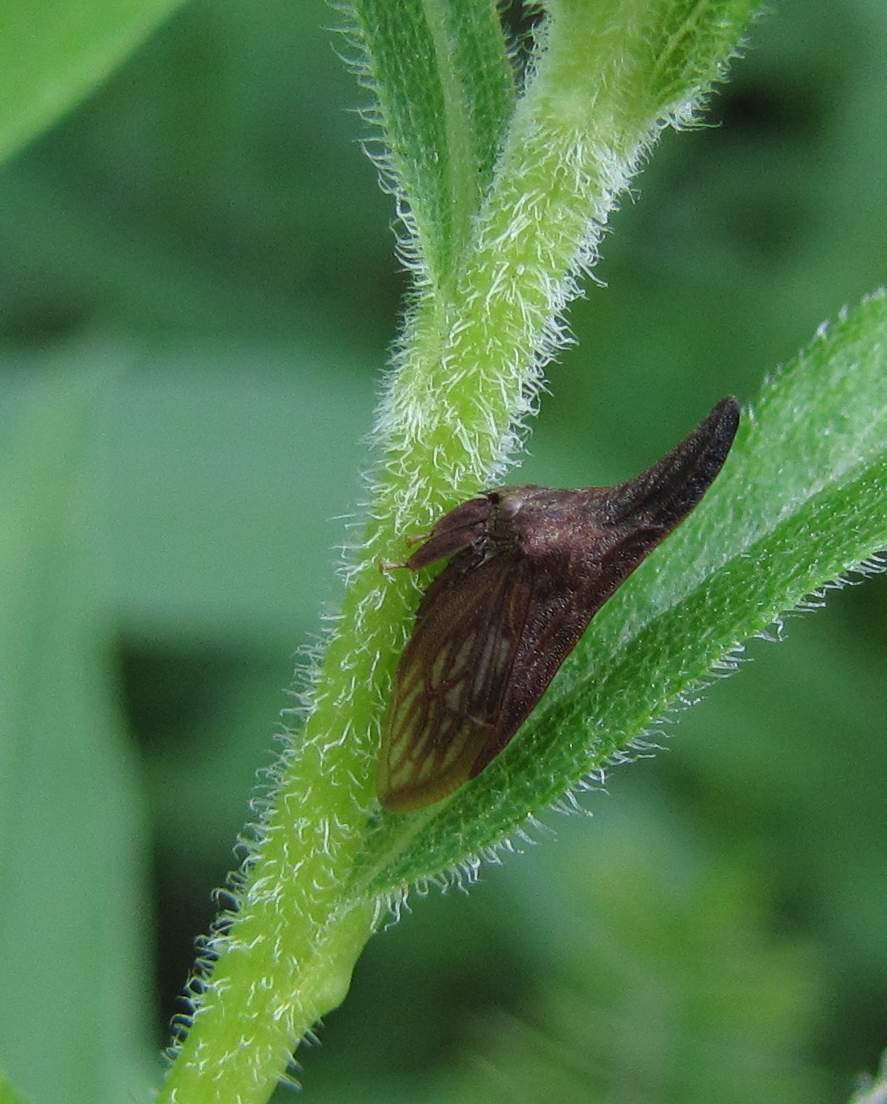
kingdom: Animalia
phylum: Arthropoda
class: Insecta
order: Hemiptera
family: Membracidae
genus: Enchenopa
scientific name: Enchenopa latipes
